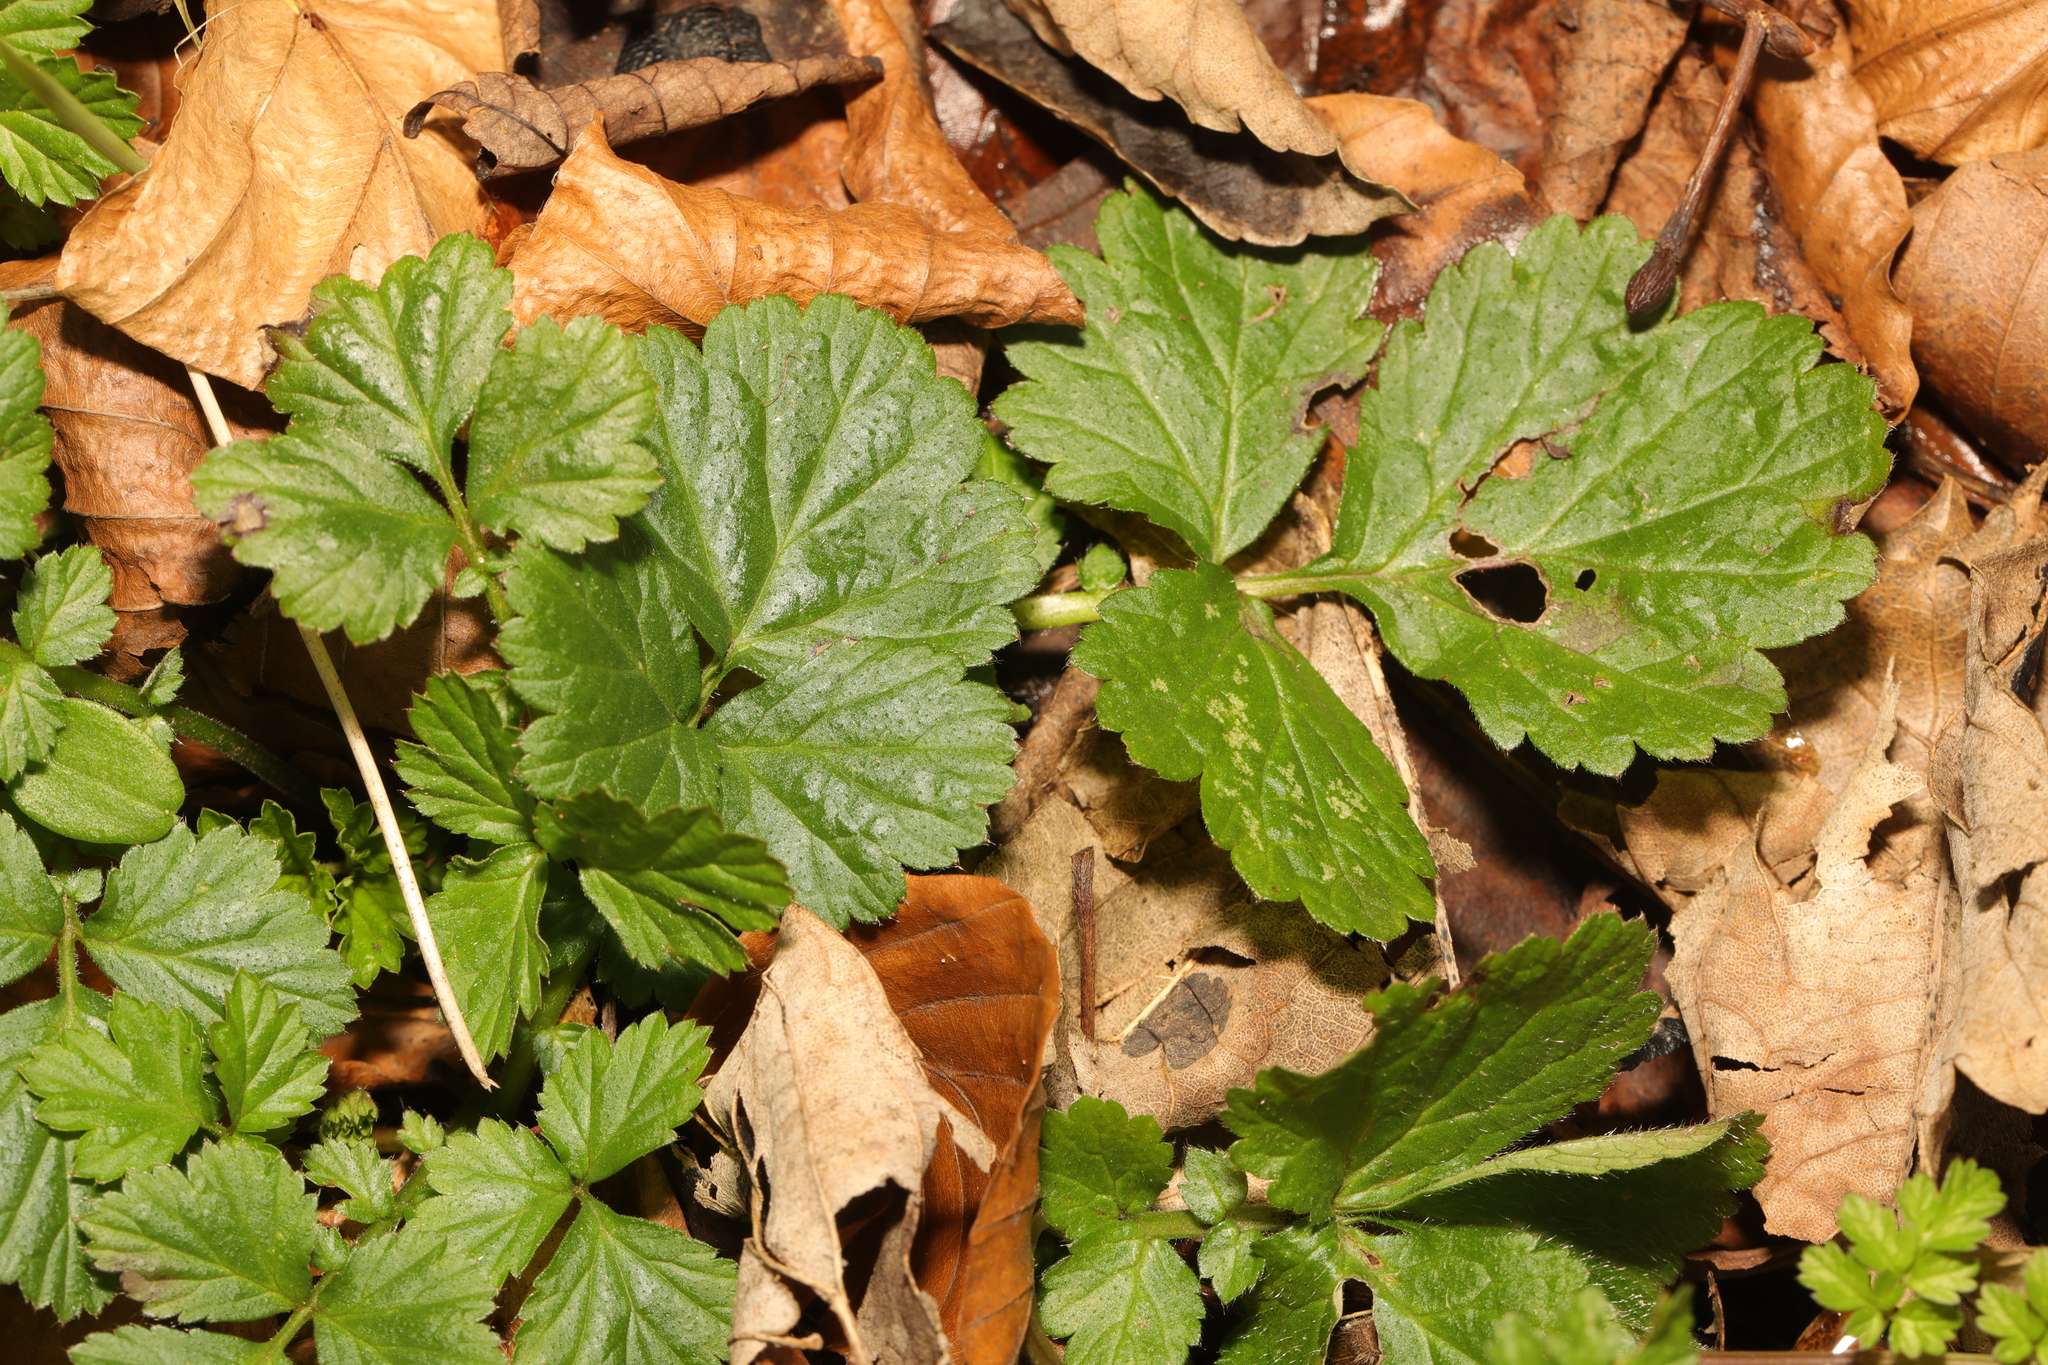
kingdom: Plantae
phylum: Tracheophyta
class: Magnoliopsida
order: Rosales
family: Rosaceae
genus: Geum
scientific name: Geum urbanum
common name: Wood avens
